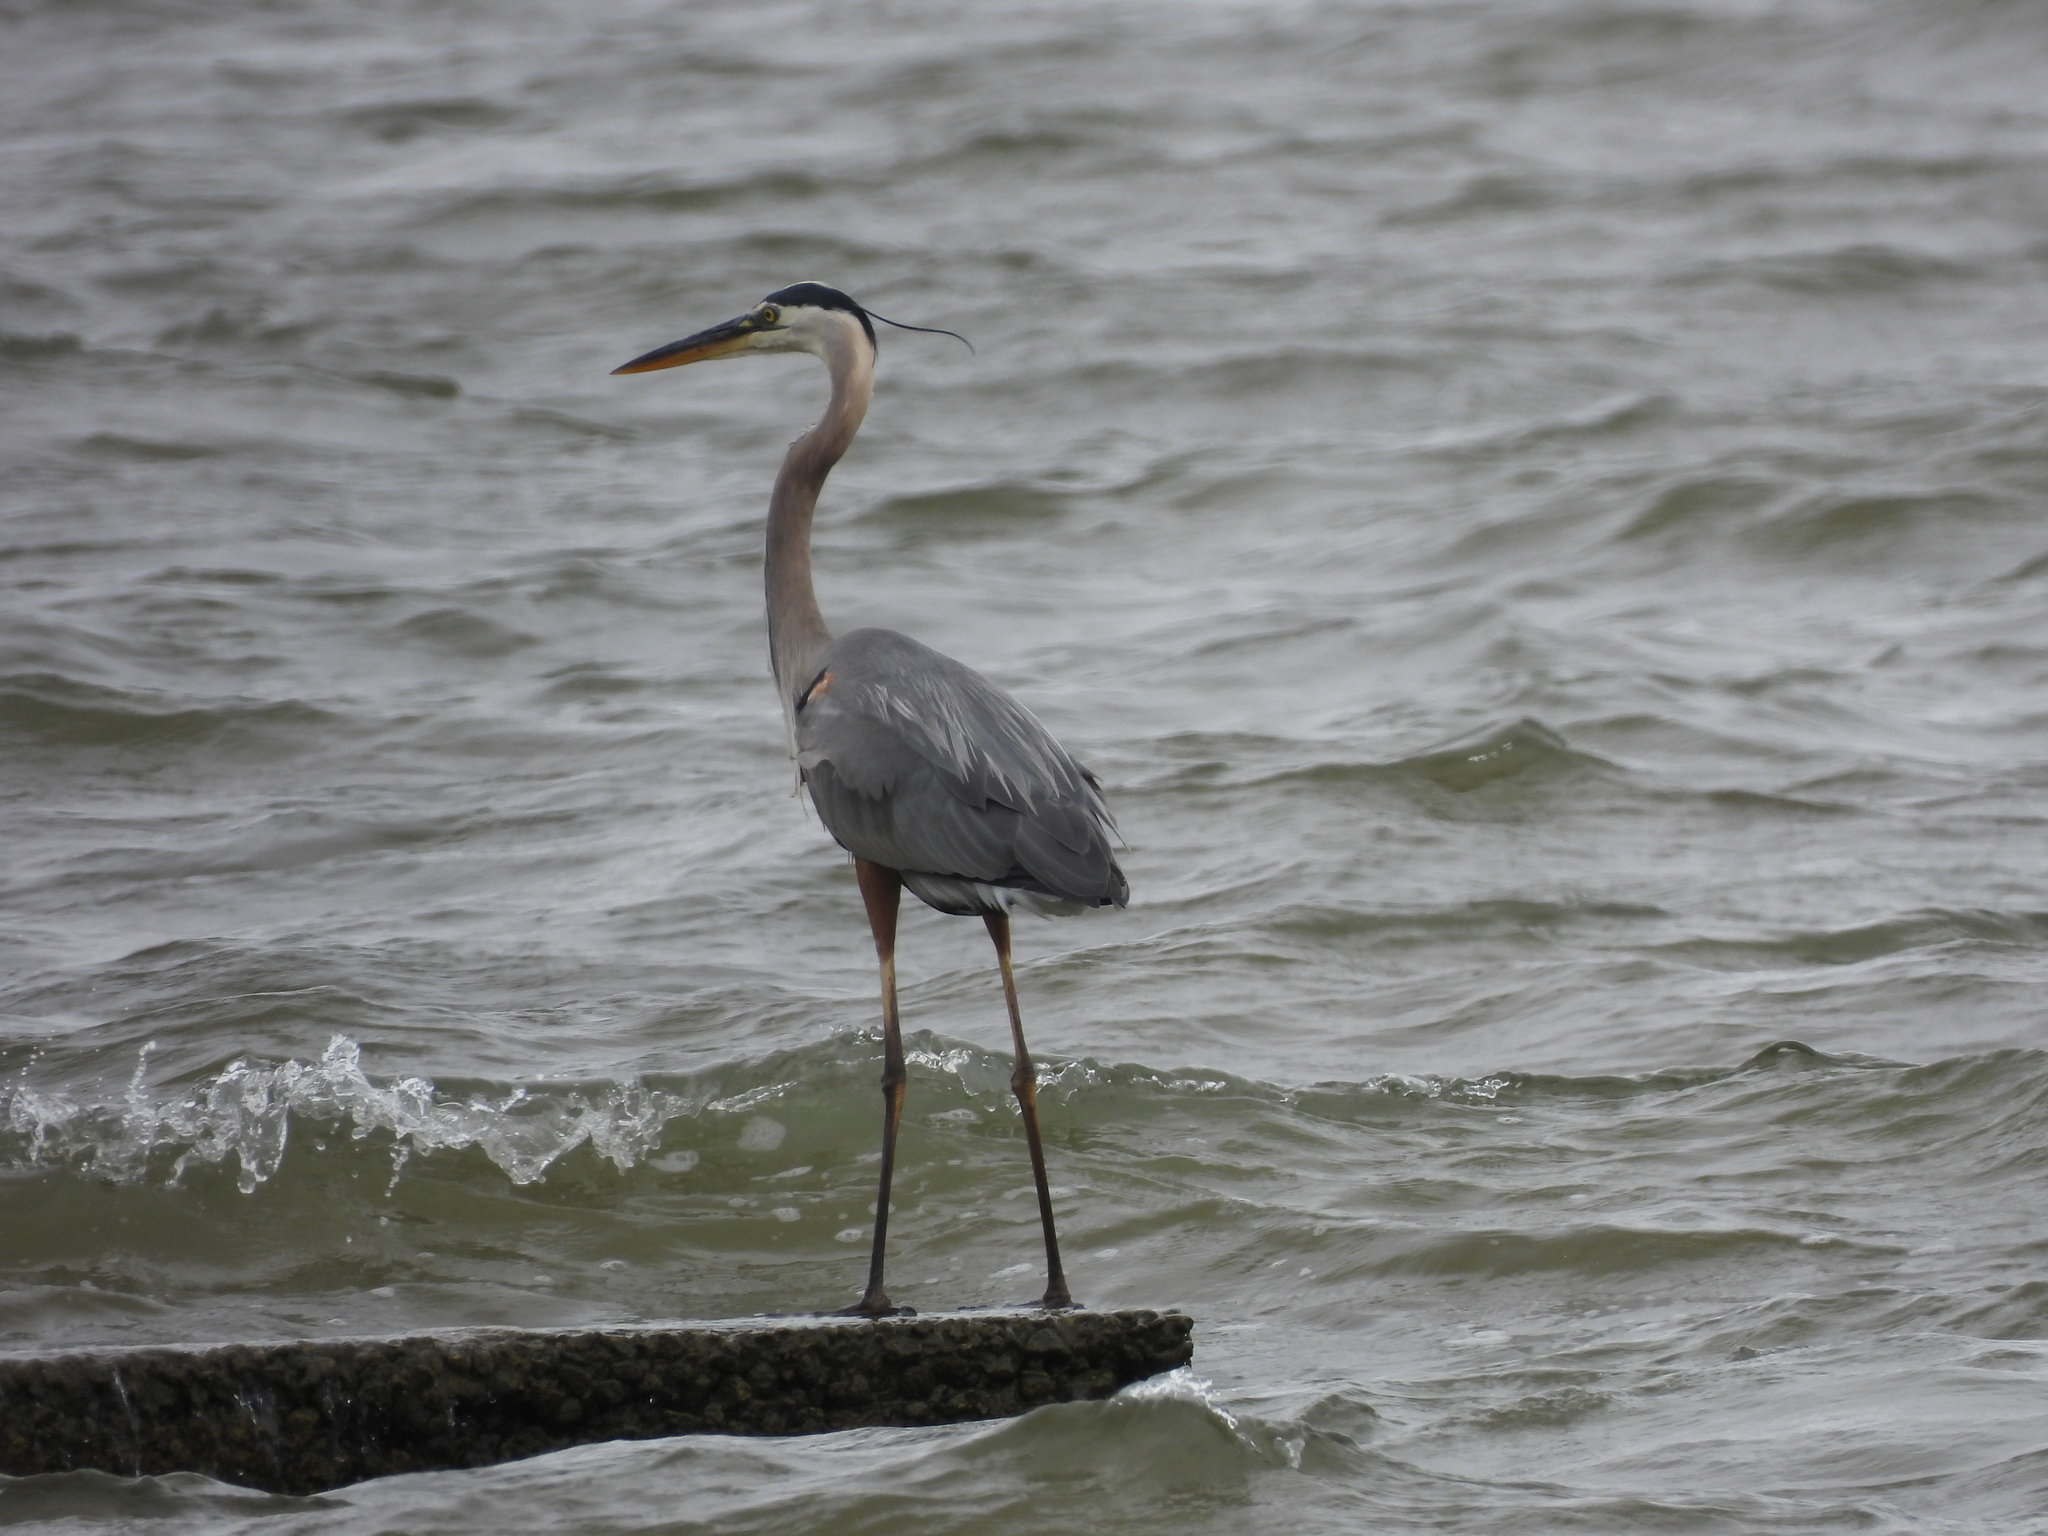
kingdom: Animalia
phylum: Chordata
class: Aves
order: Pelecaniformes
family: Ardeidae
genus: Ardea
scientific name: Ardea herodias
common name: Great blue heron
